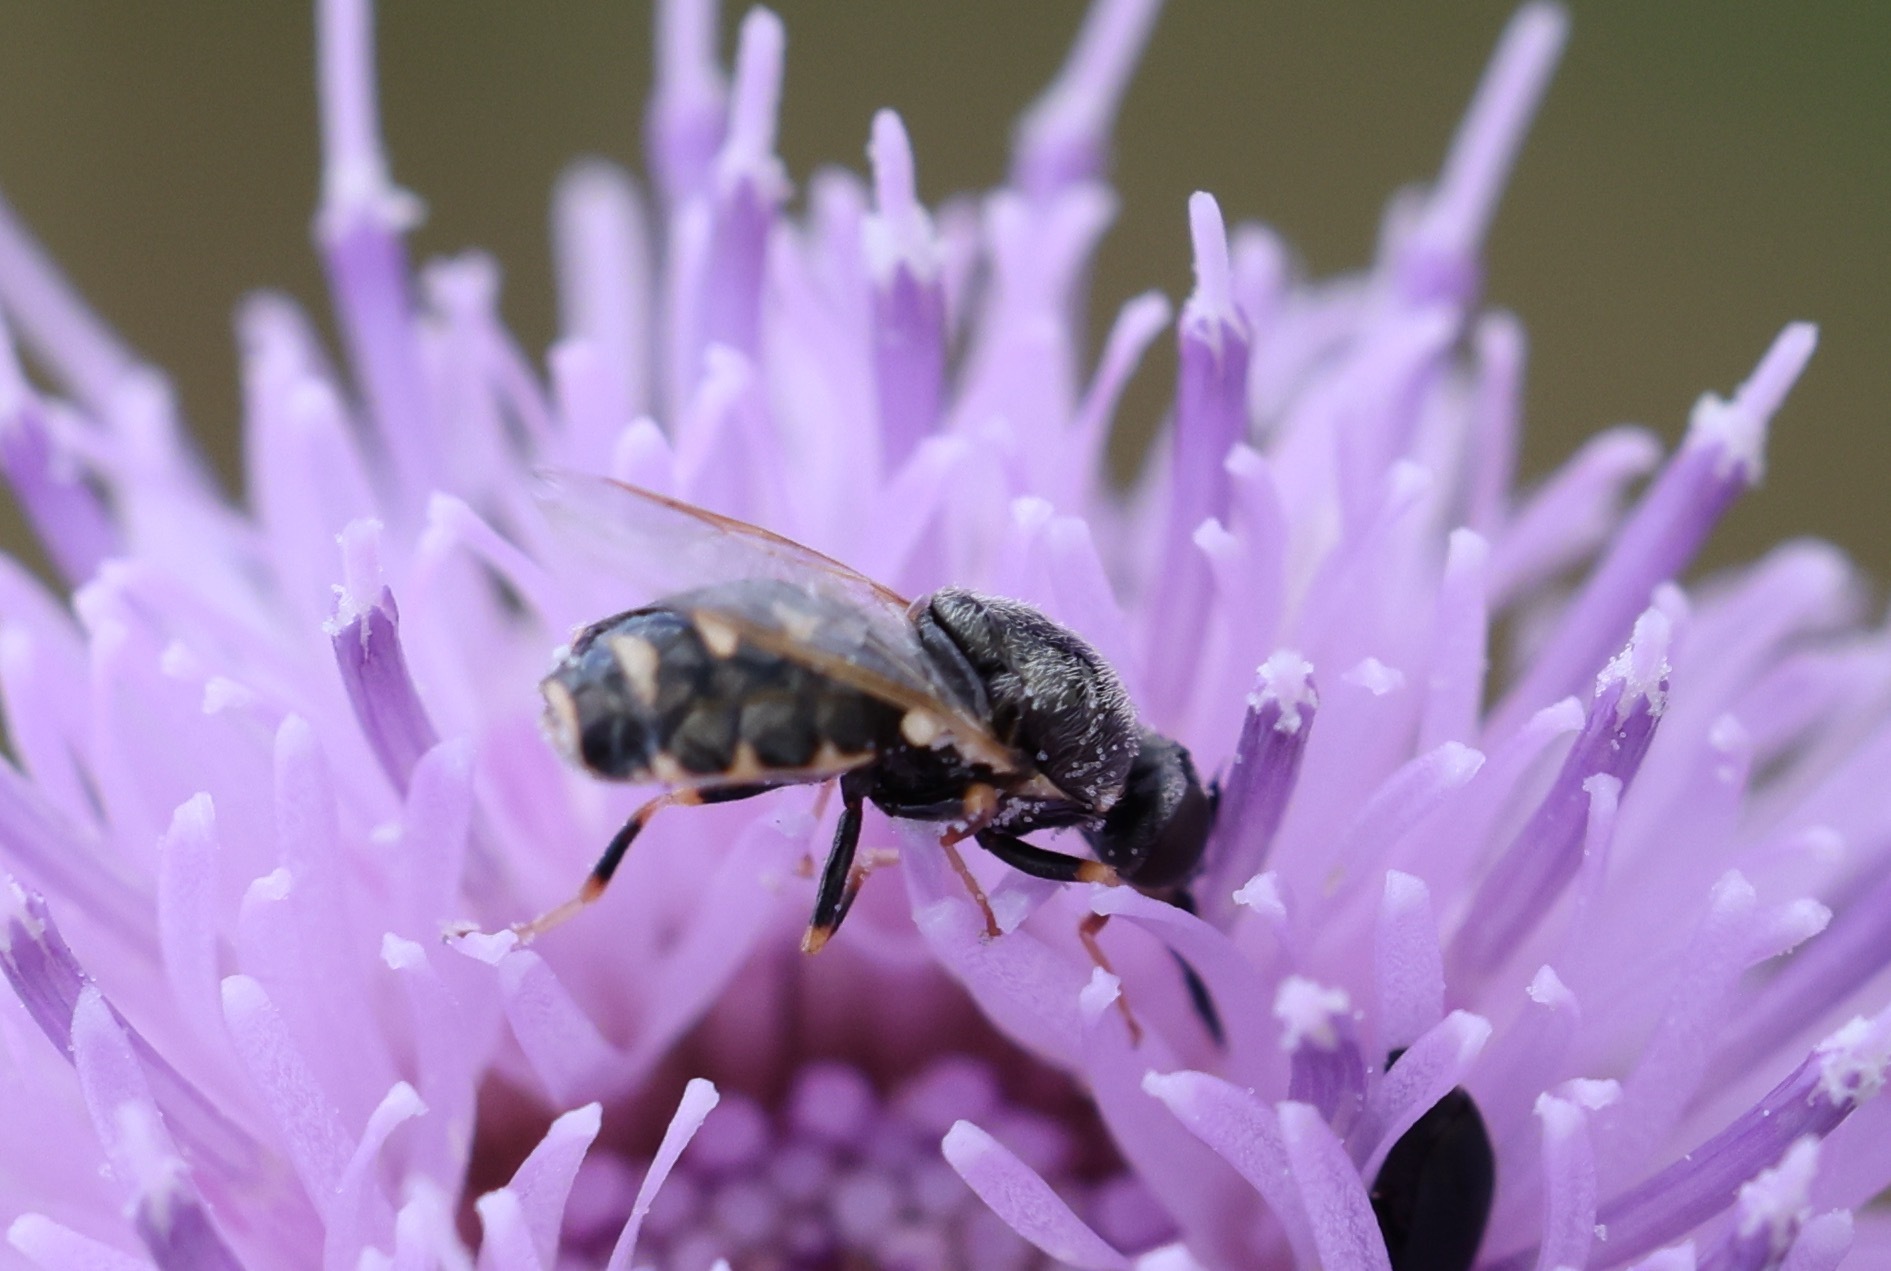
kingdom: Animalia
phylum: Arthropoda
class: Insecta
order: Diptera
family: Stratiomyidae
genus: Nemotelus
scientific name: Nemotelus uliginosus
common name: Barred snout
